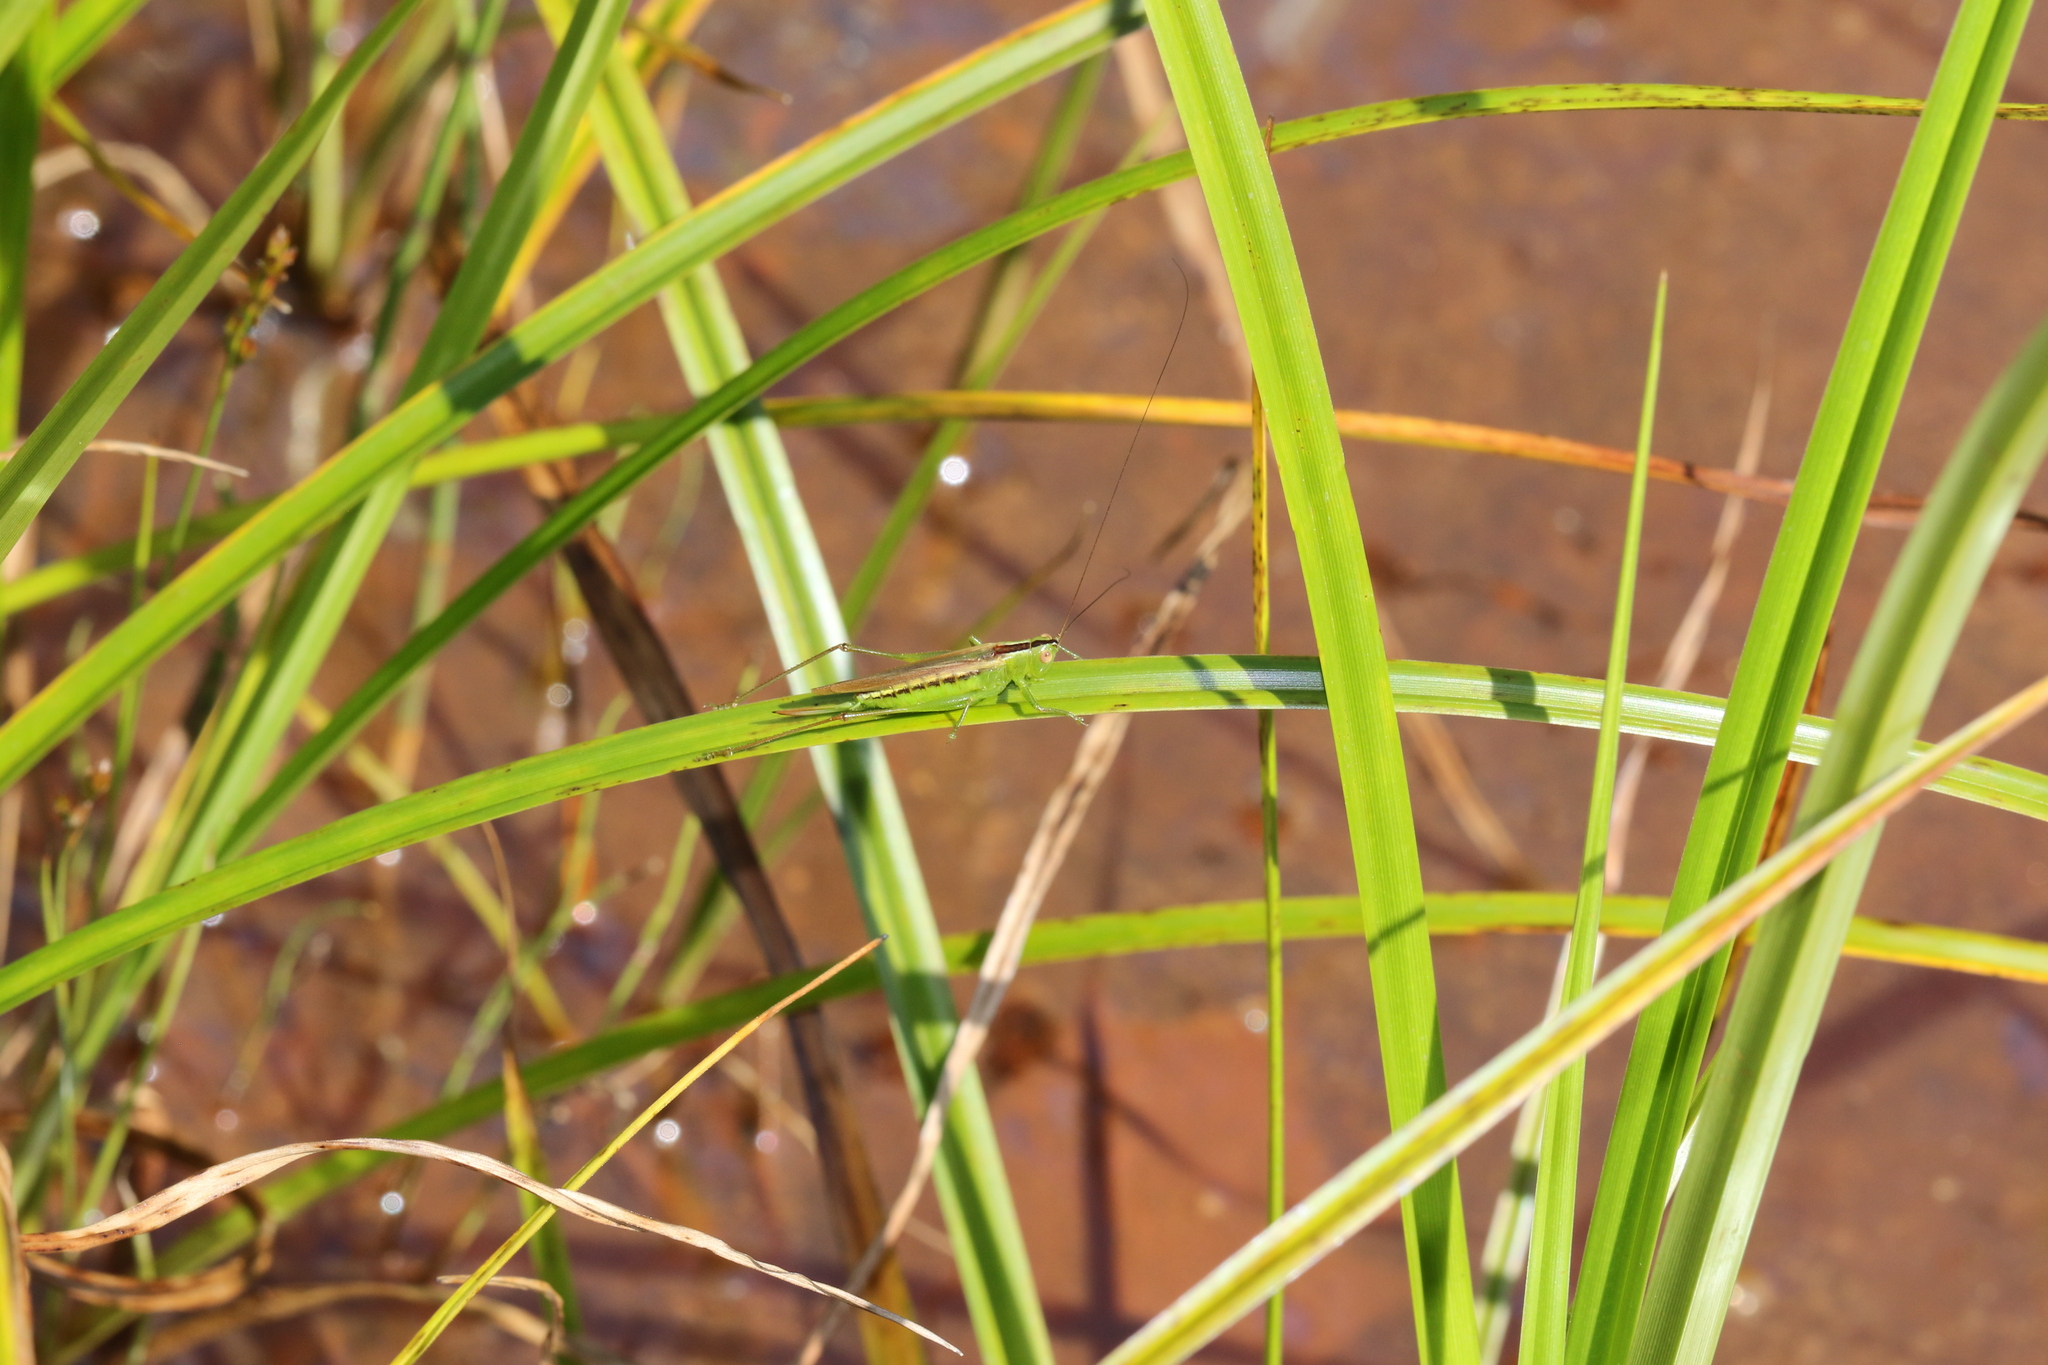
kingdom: Animalia
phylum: Arthropoda
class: Insecta
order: Orthoptera
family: Tettigoniidae
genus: Conocephalus
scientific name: Conocephalus fasciatus
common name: Slender meadow katydid
